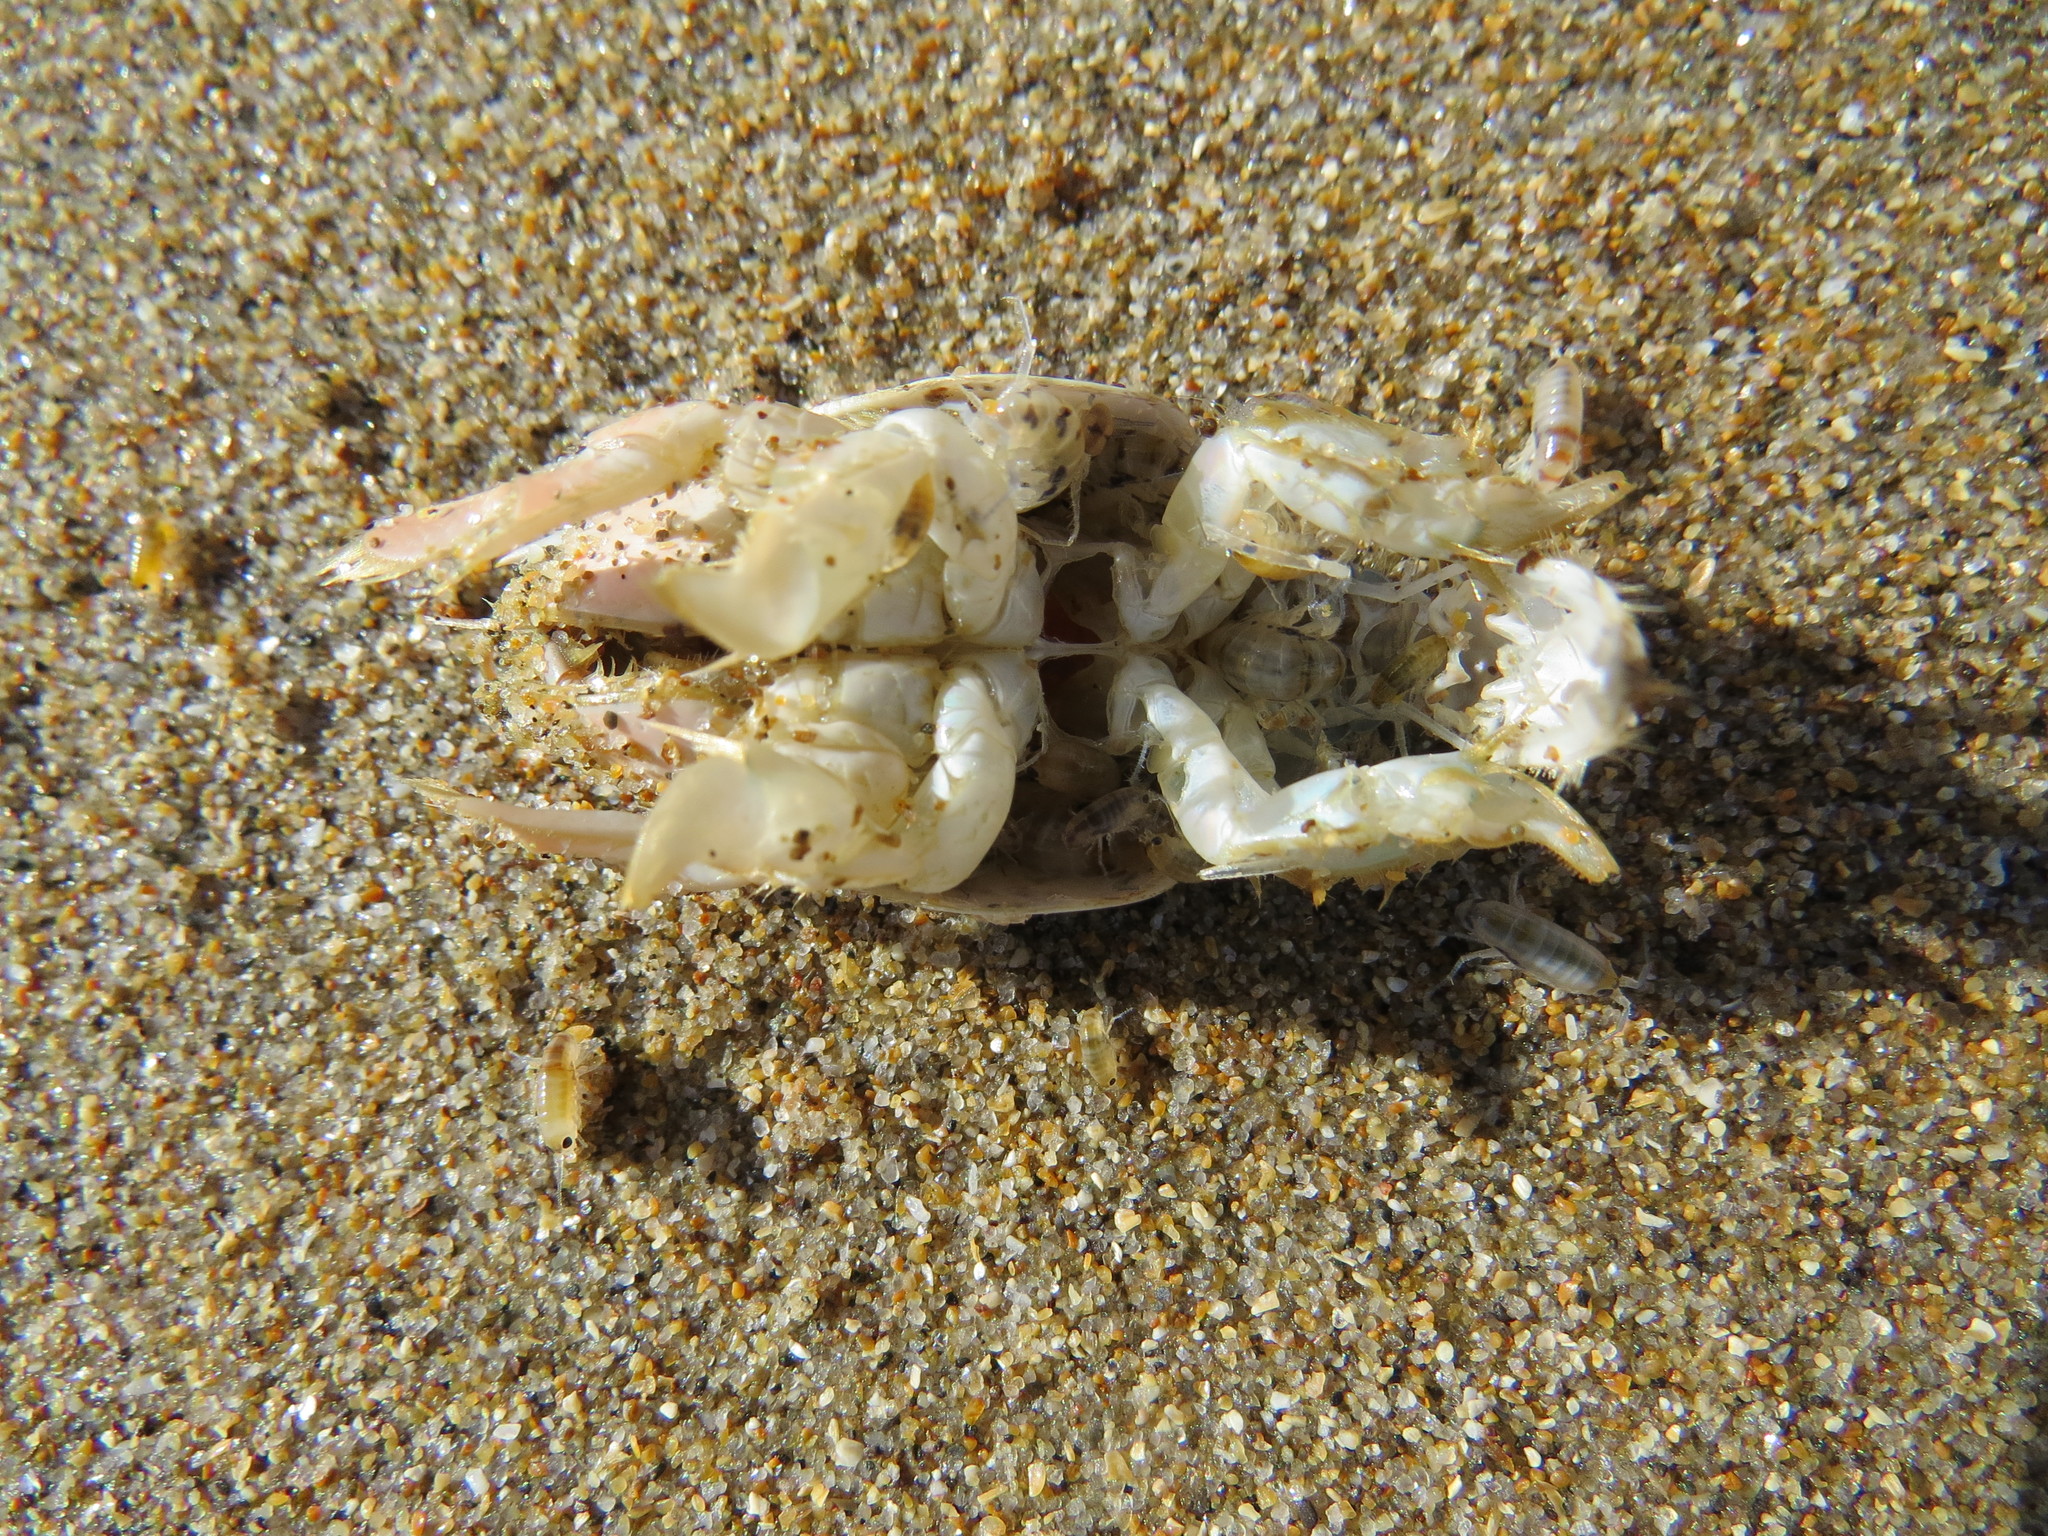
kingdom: Animalia
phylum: Arthropoda
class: Malacostraca
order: Decapoda
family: Hippidae
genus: Emerita
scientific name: Emerita analoga
